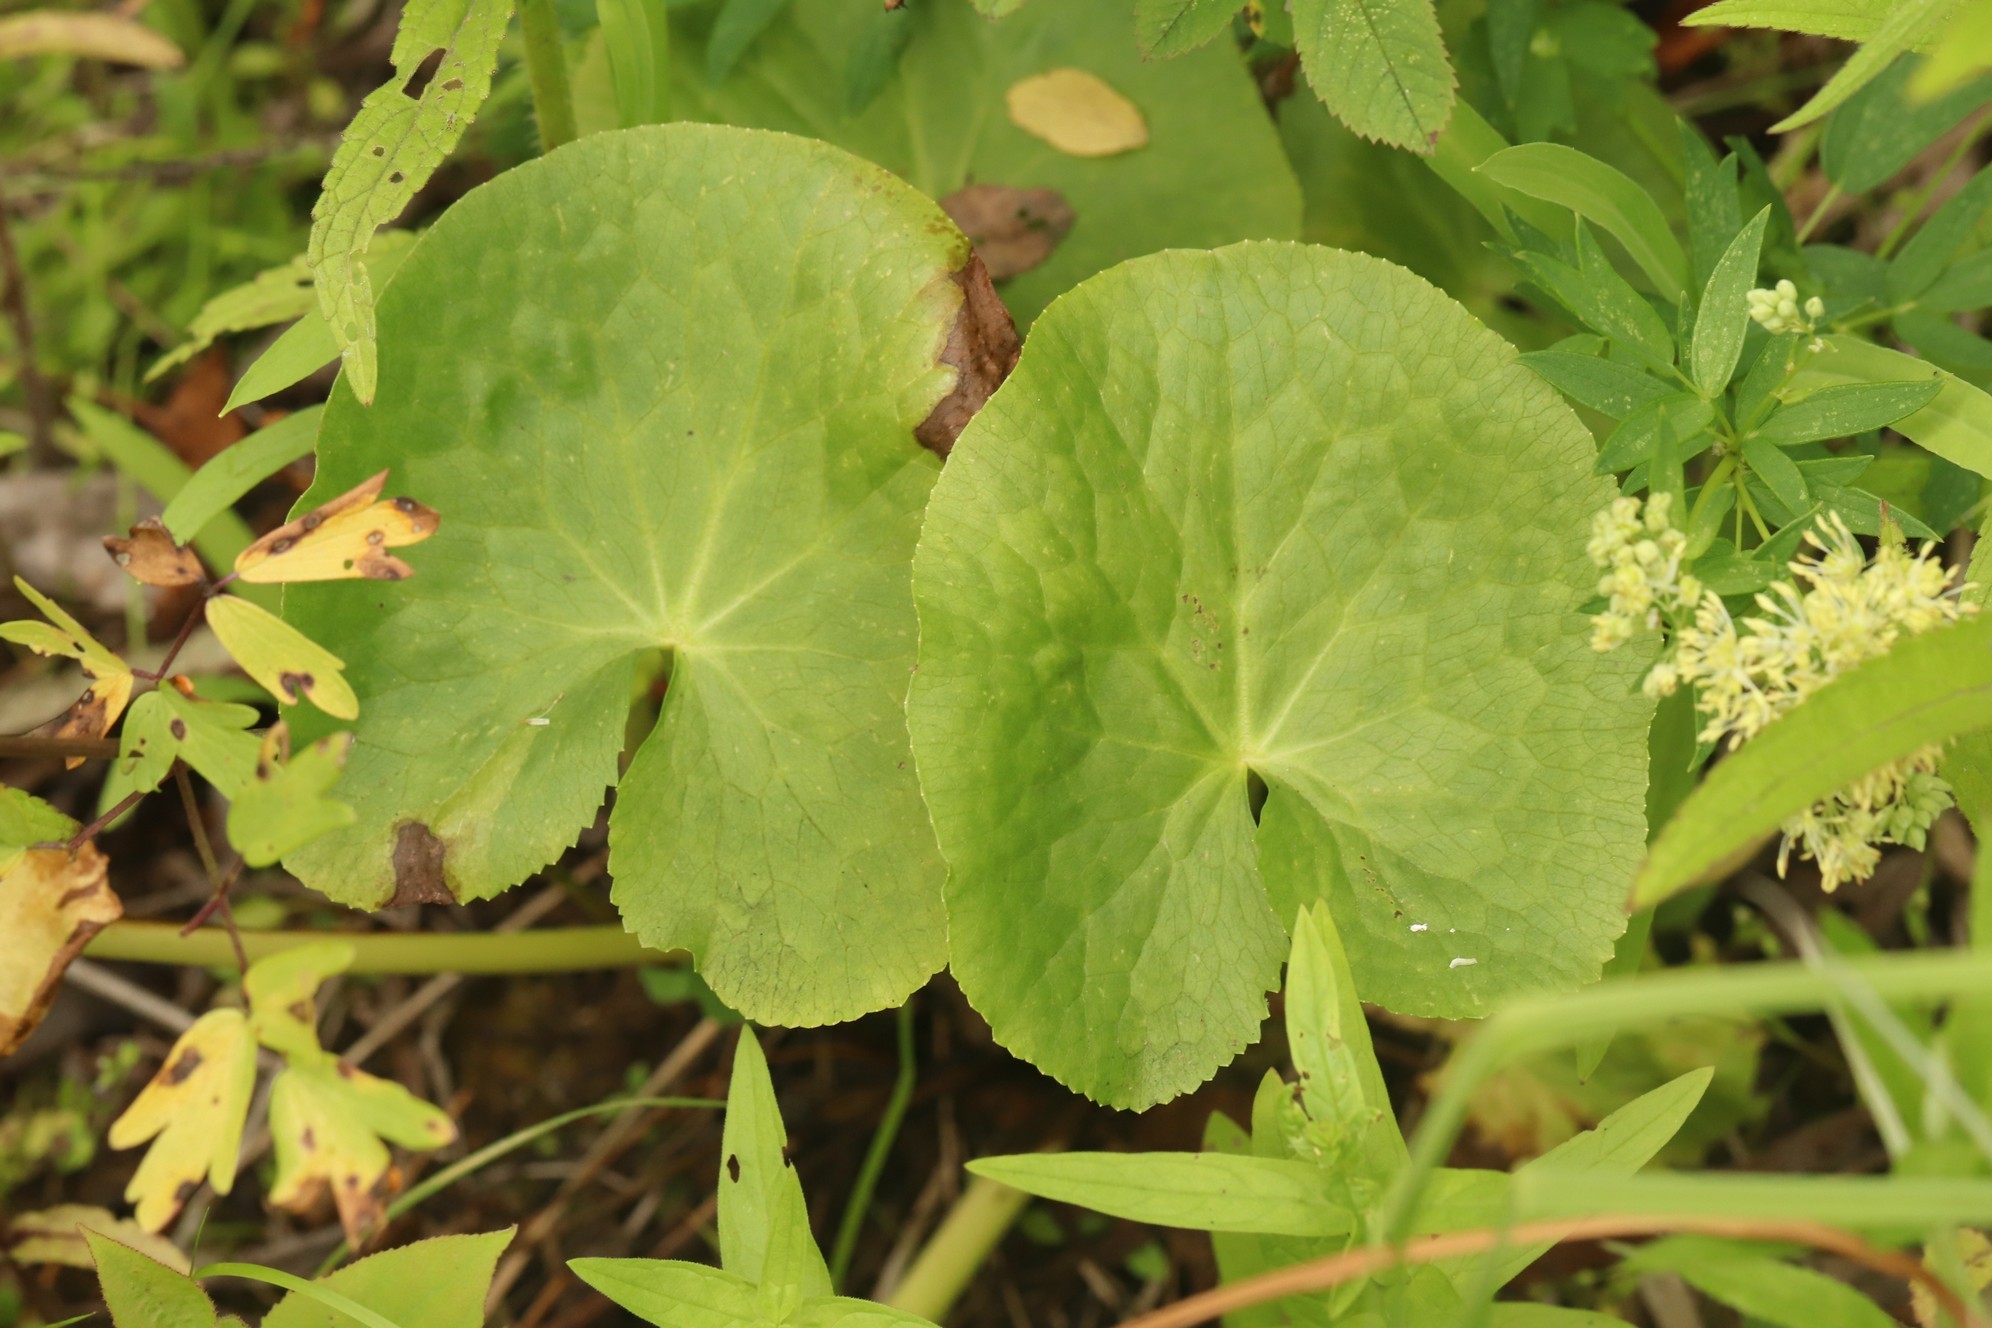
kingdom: Plantae
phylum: Tracheophyta
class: Magnoliopsida
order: Ranunculales
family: Ranunculaceae
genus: Caltha
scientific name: Caltha palustris
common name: Marsh marigold
